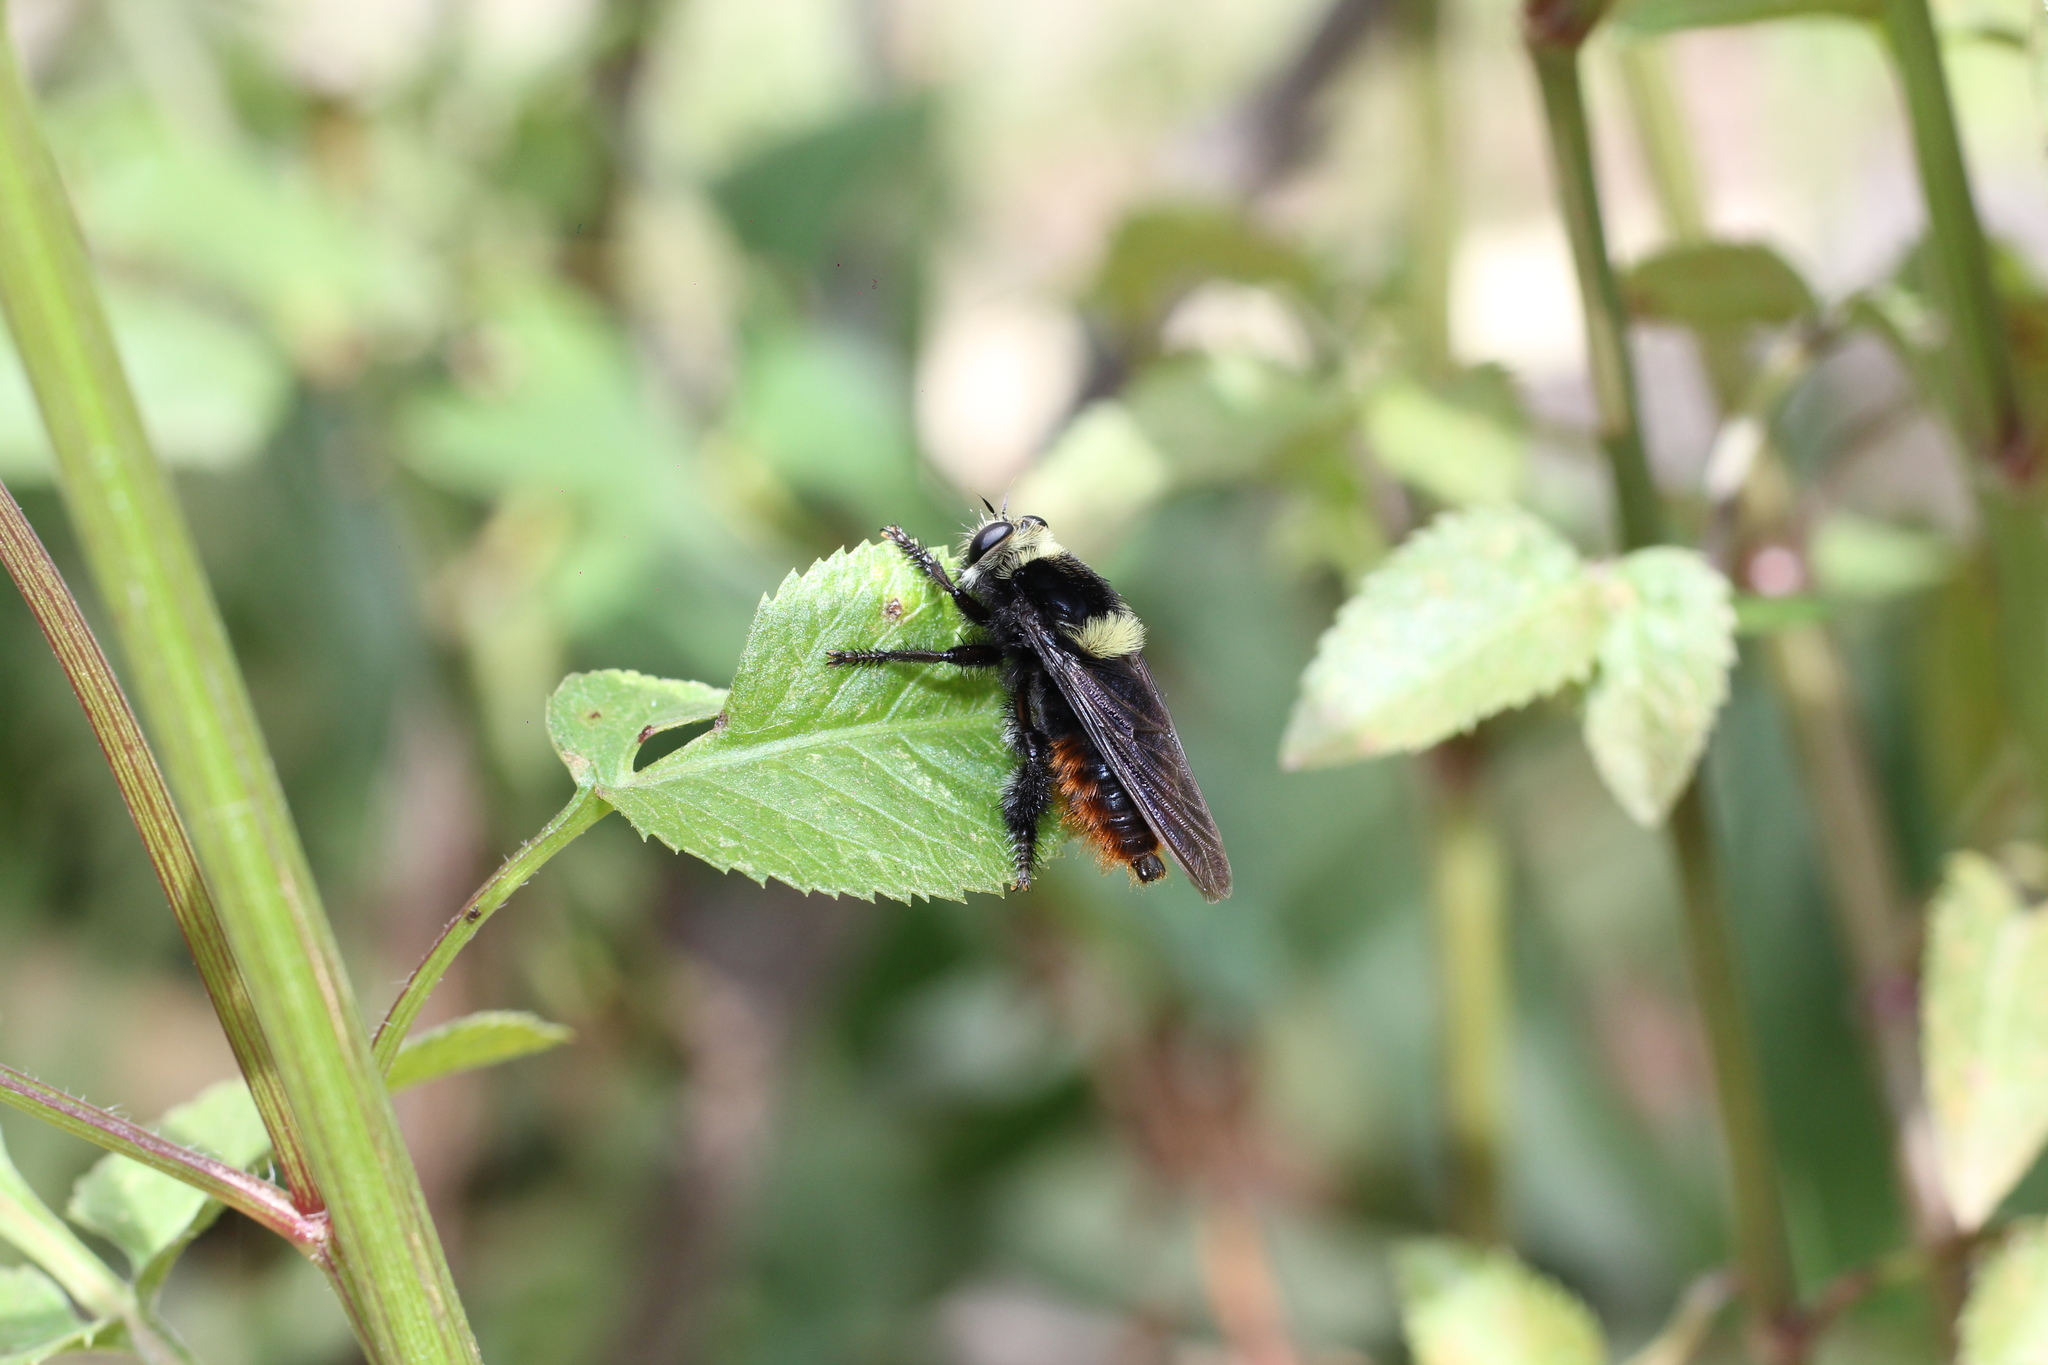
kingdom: Animalia
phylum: Arthropoda
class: Insecta
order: Diptera
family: Asilidae
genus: Mallophora
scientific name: Mallophora ruficauda
